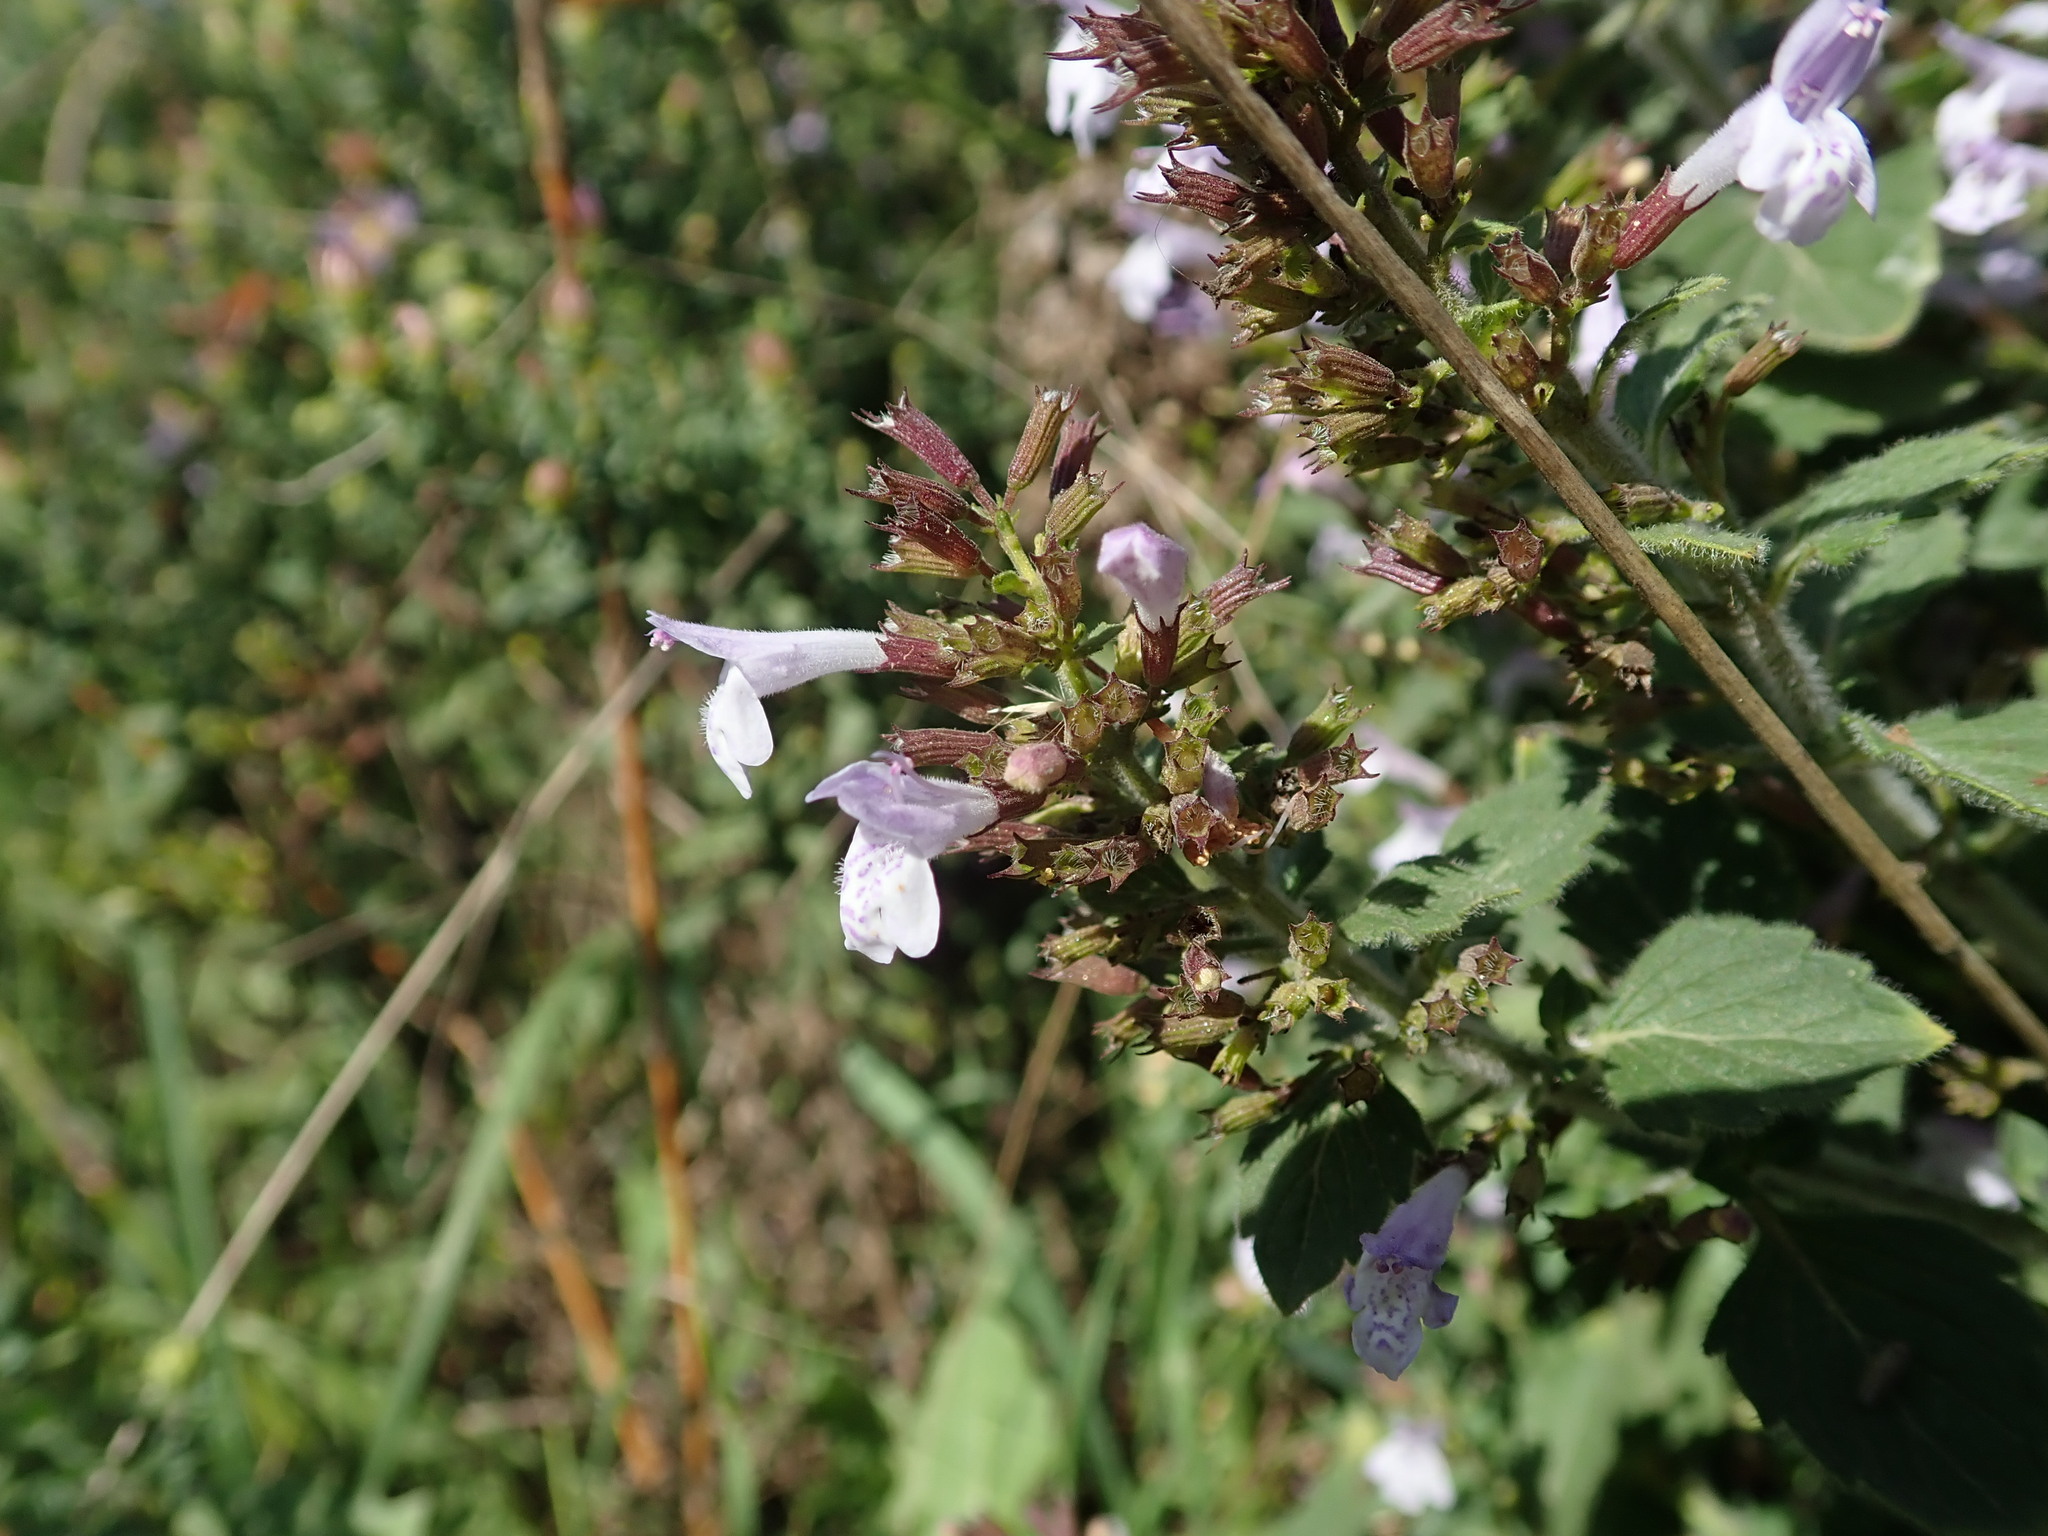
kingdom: Plantae
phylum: Tracheophyta
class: Magnoliopsida
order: Lamiales
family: Lamiaceae
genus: Clinopodium
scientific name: Clinopodium menthifolium
